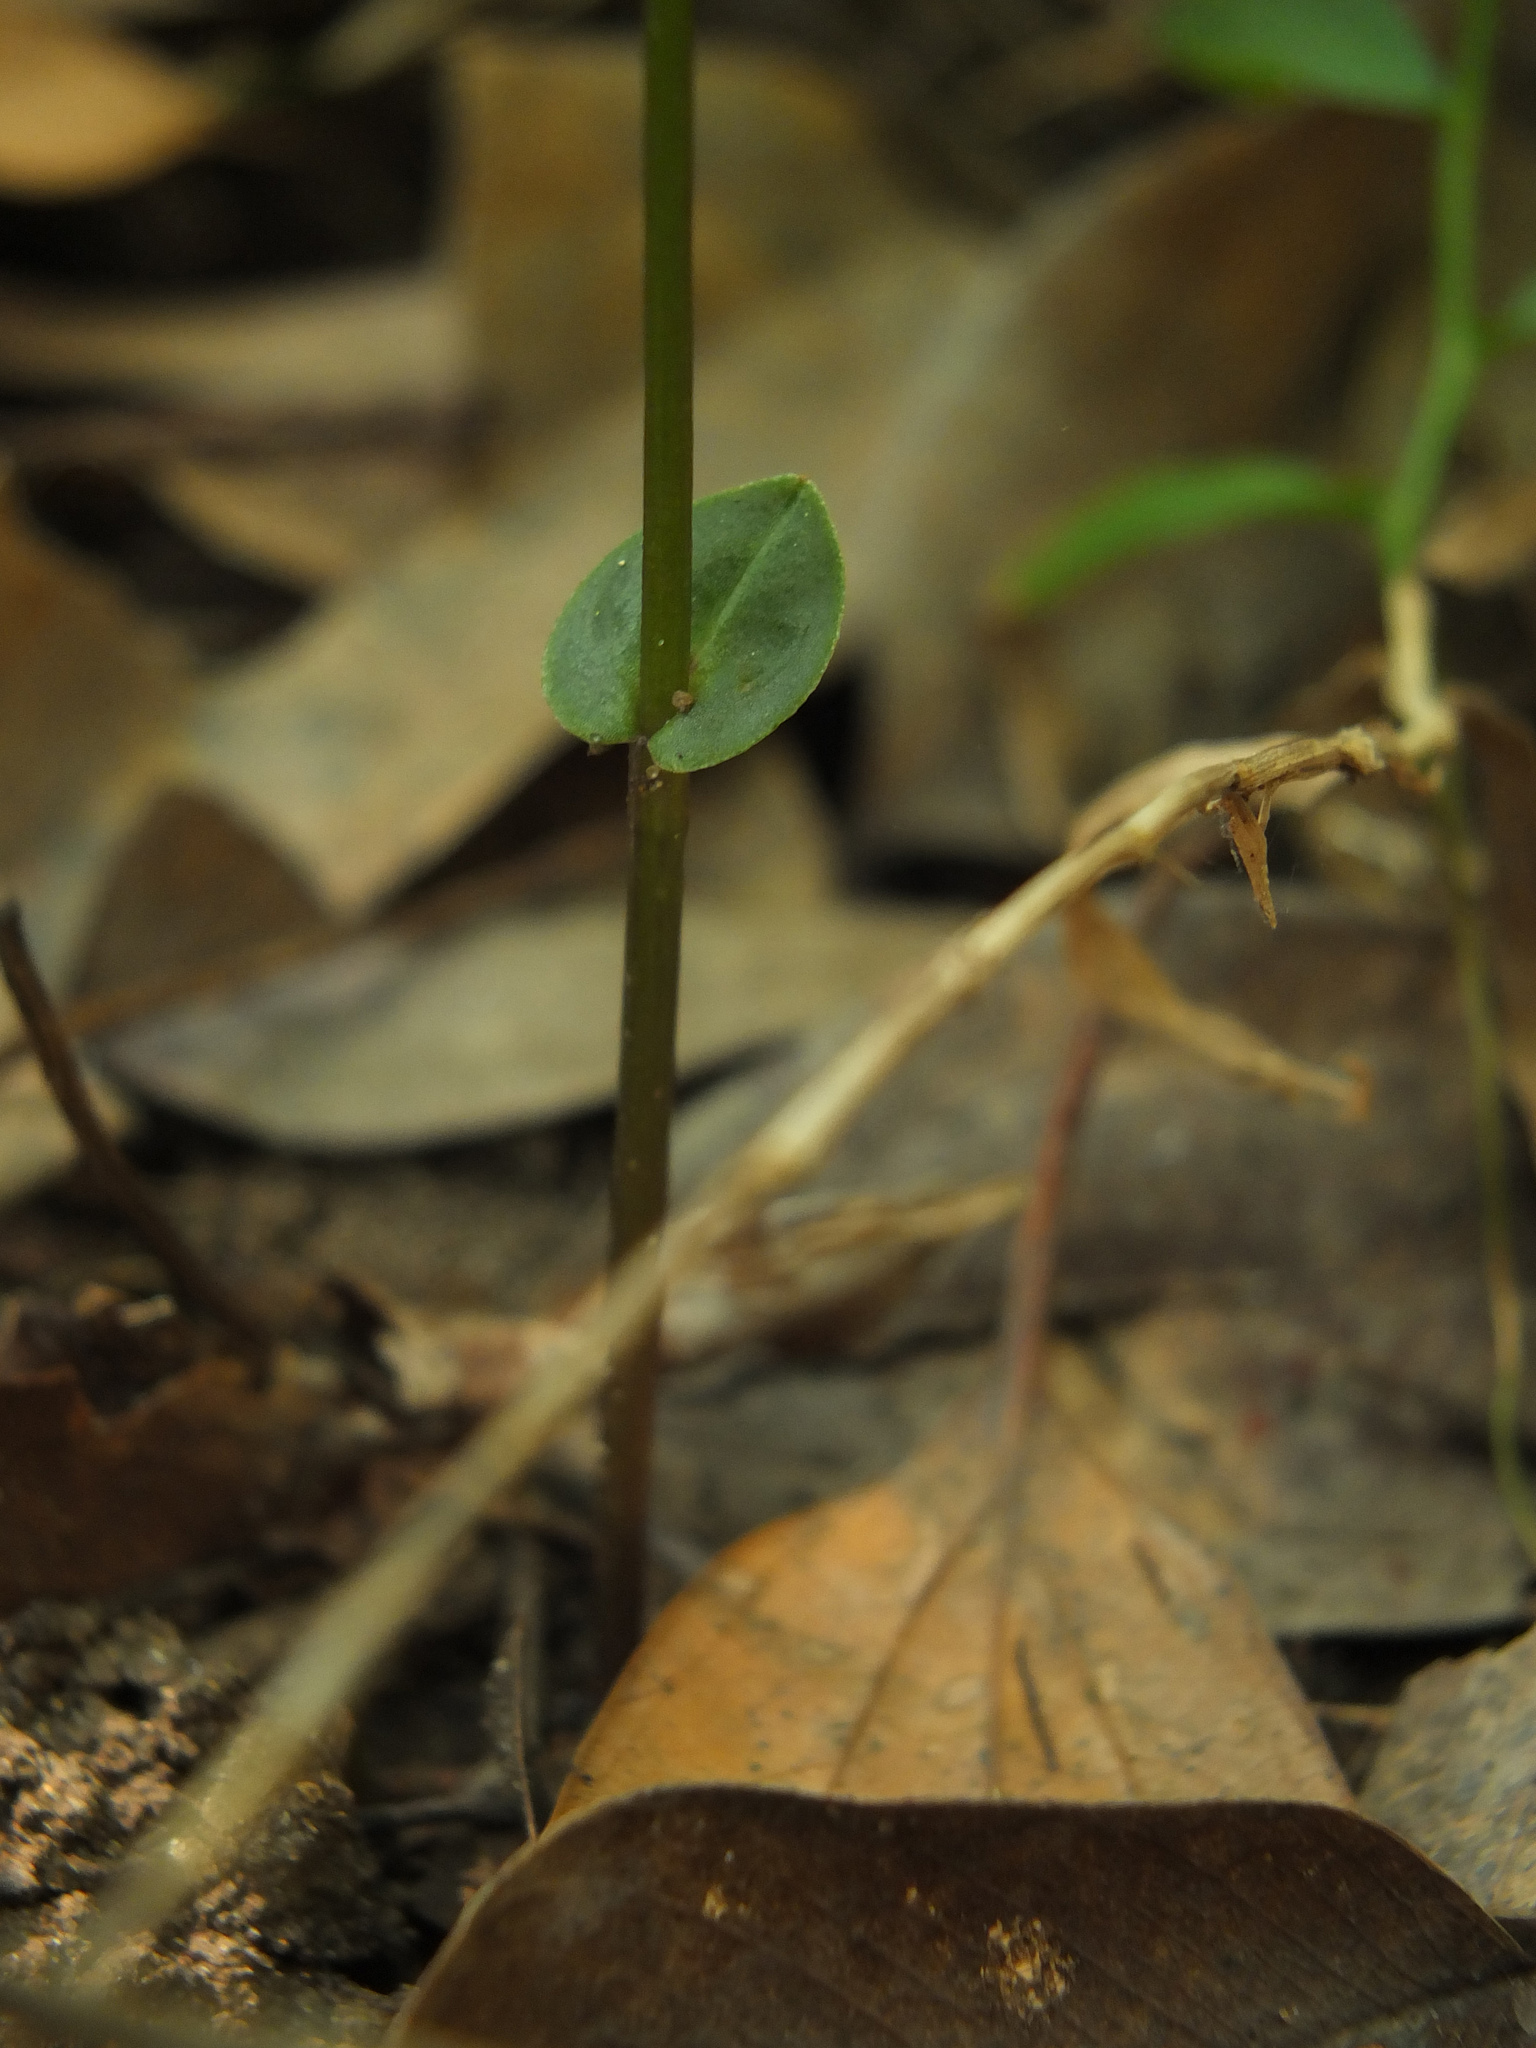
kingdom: Plantae
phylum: Tracheophyta
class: Liliopsida
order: Asparagales
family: Orchidaceae
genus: Disperis
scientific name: Disperis neilgherrensis
